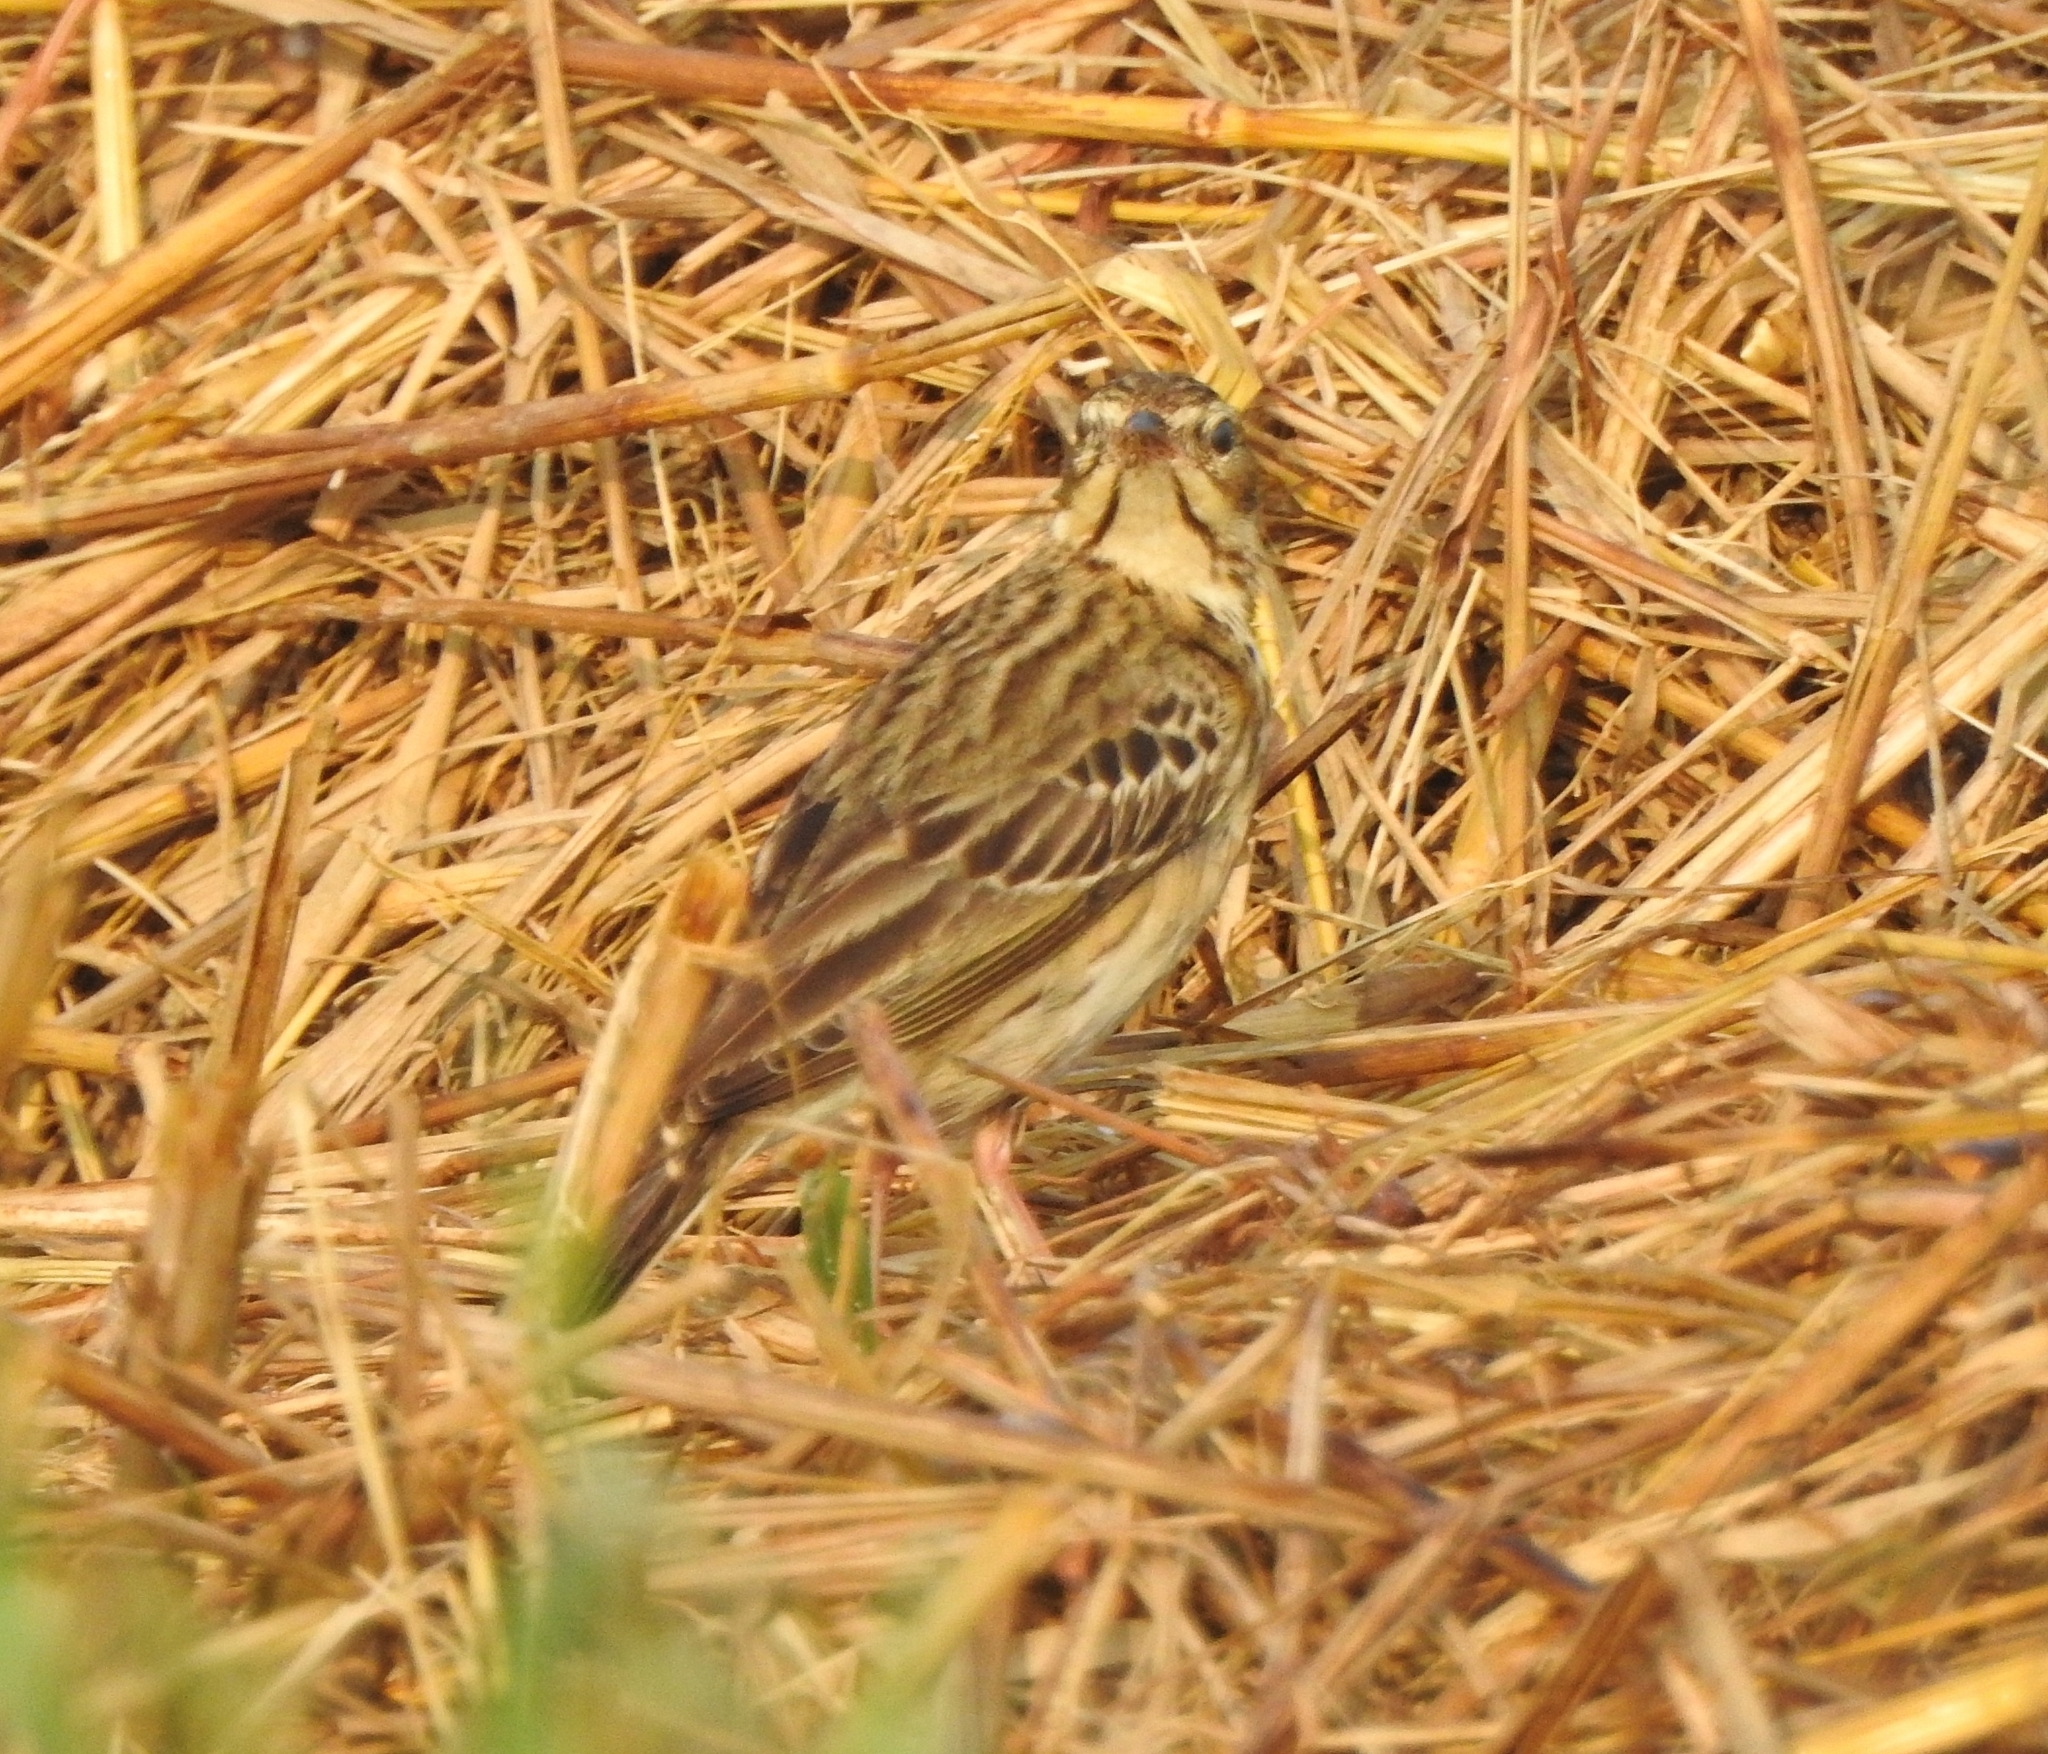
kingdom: Animalia
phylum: Chordata
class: Aves
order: Passeriformes
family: Motacillidae
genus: Anthus
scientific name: Anthus trivialis
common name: Tree pipit
